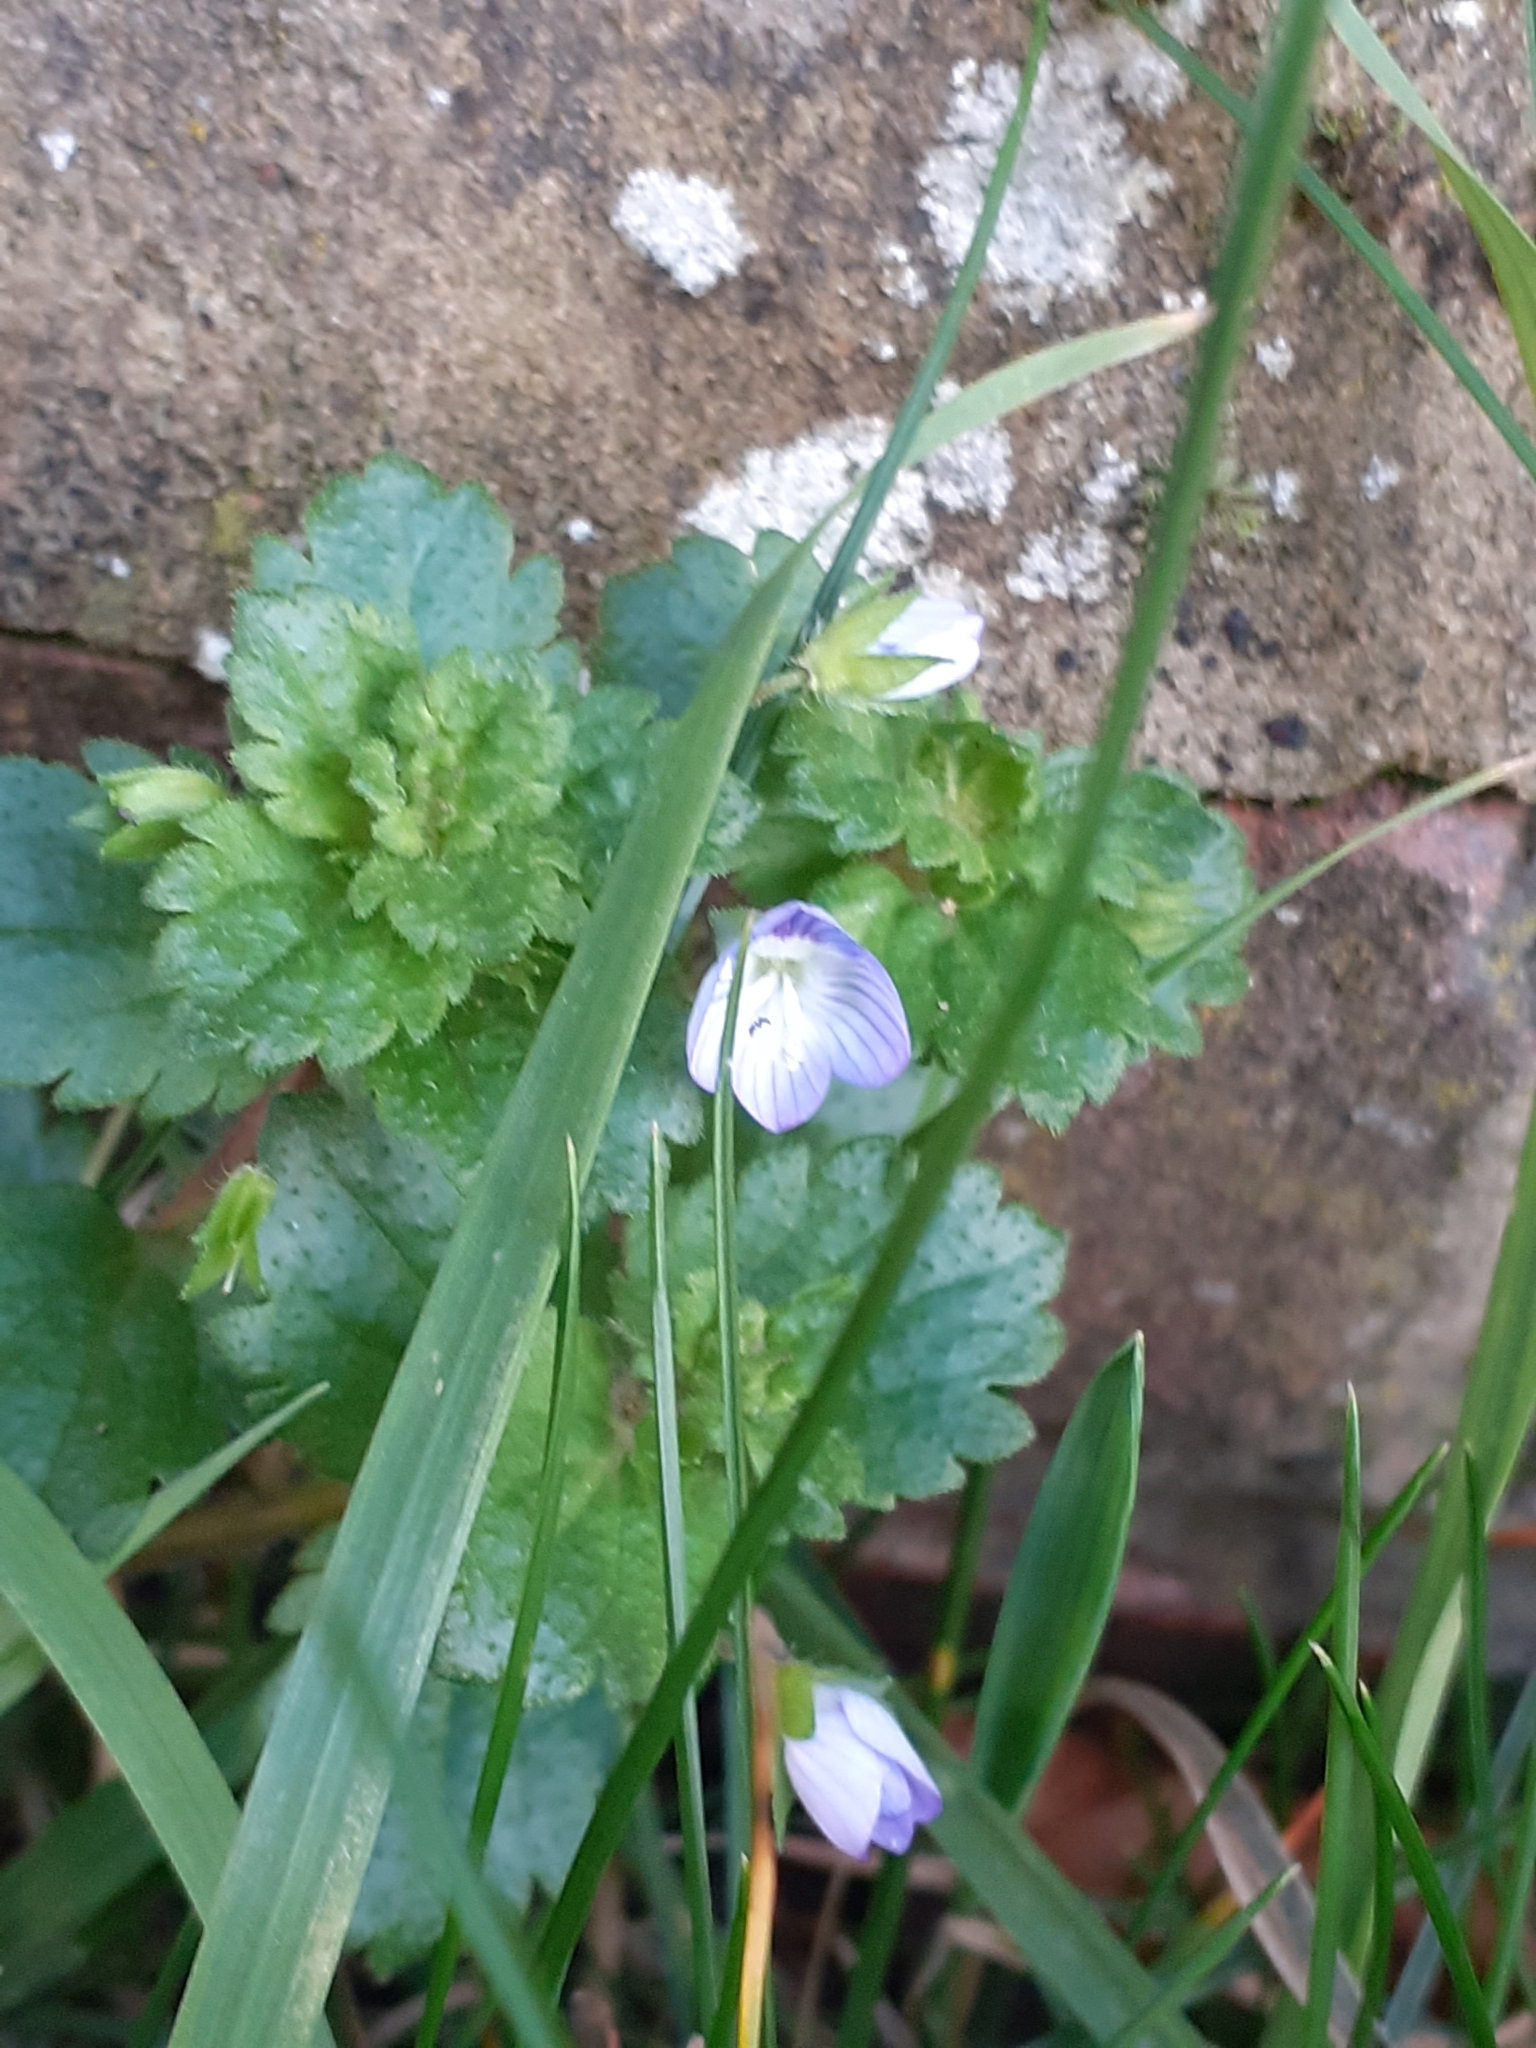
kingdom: Plantae
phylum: Tracheophyta
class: Magnoliopsida
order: Lamiales
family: Plantaginaceae
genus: Veronica
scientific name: Veronica persica
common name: Common field-speedwell
